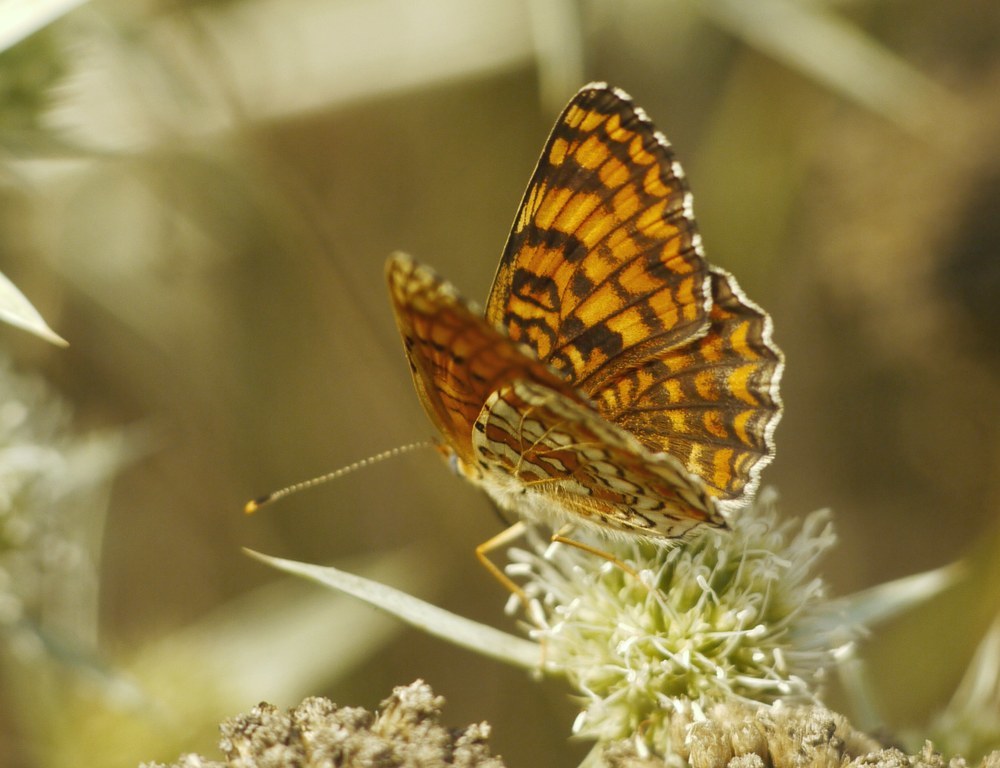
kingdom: Animalia
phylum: Arthropoda
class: Insecta
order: Lepidoptera
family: Nymphalidae
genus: Melitaea
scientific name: Melitaea phoebe
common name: Knapweed fritillary
